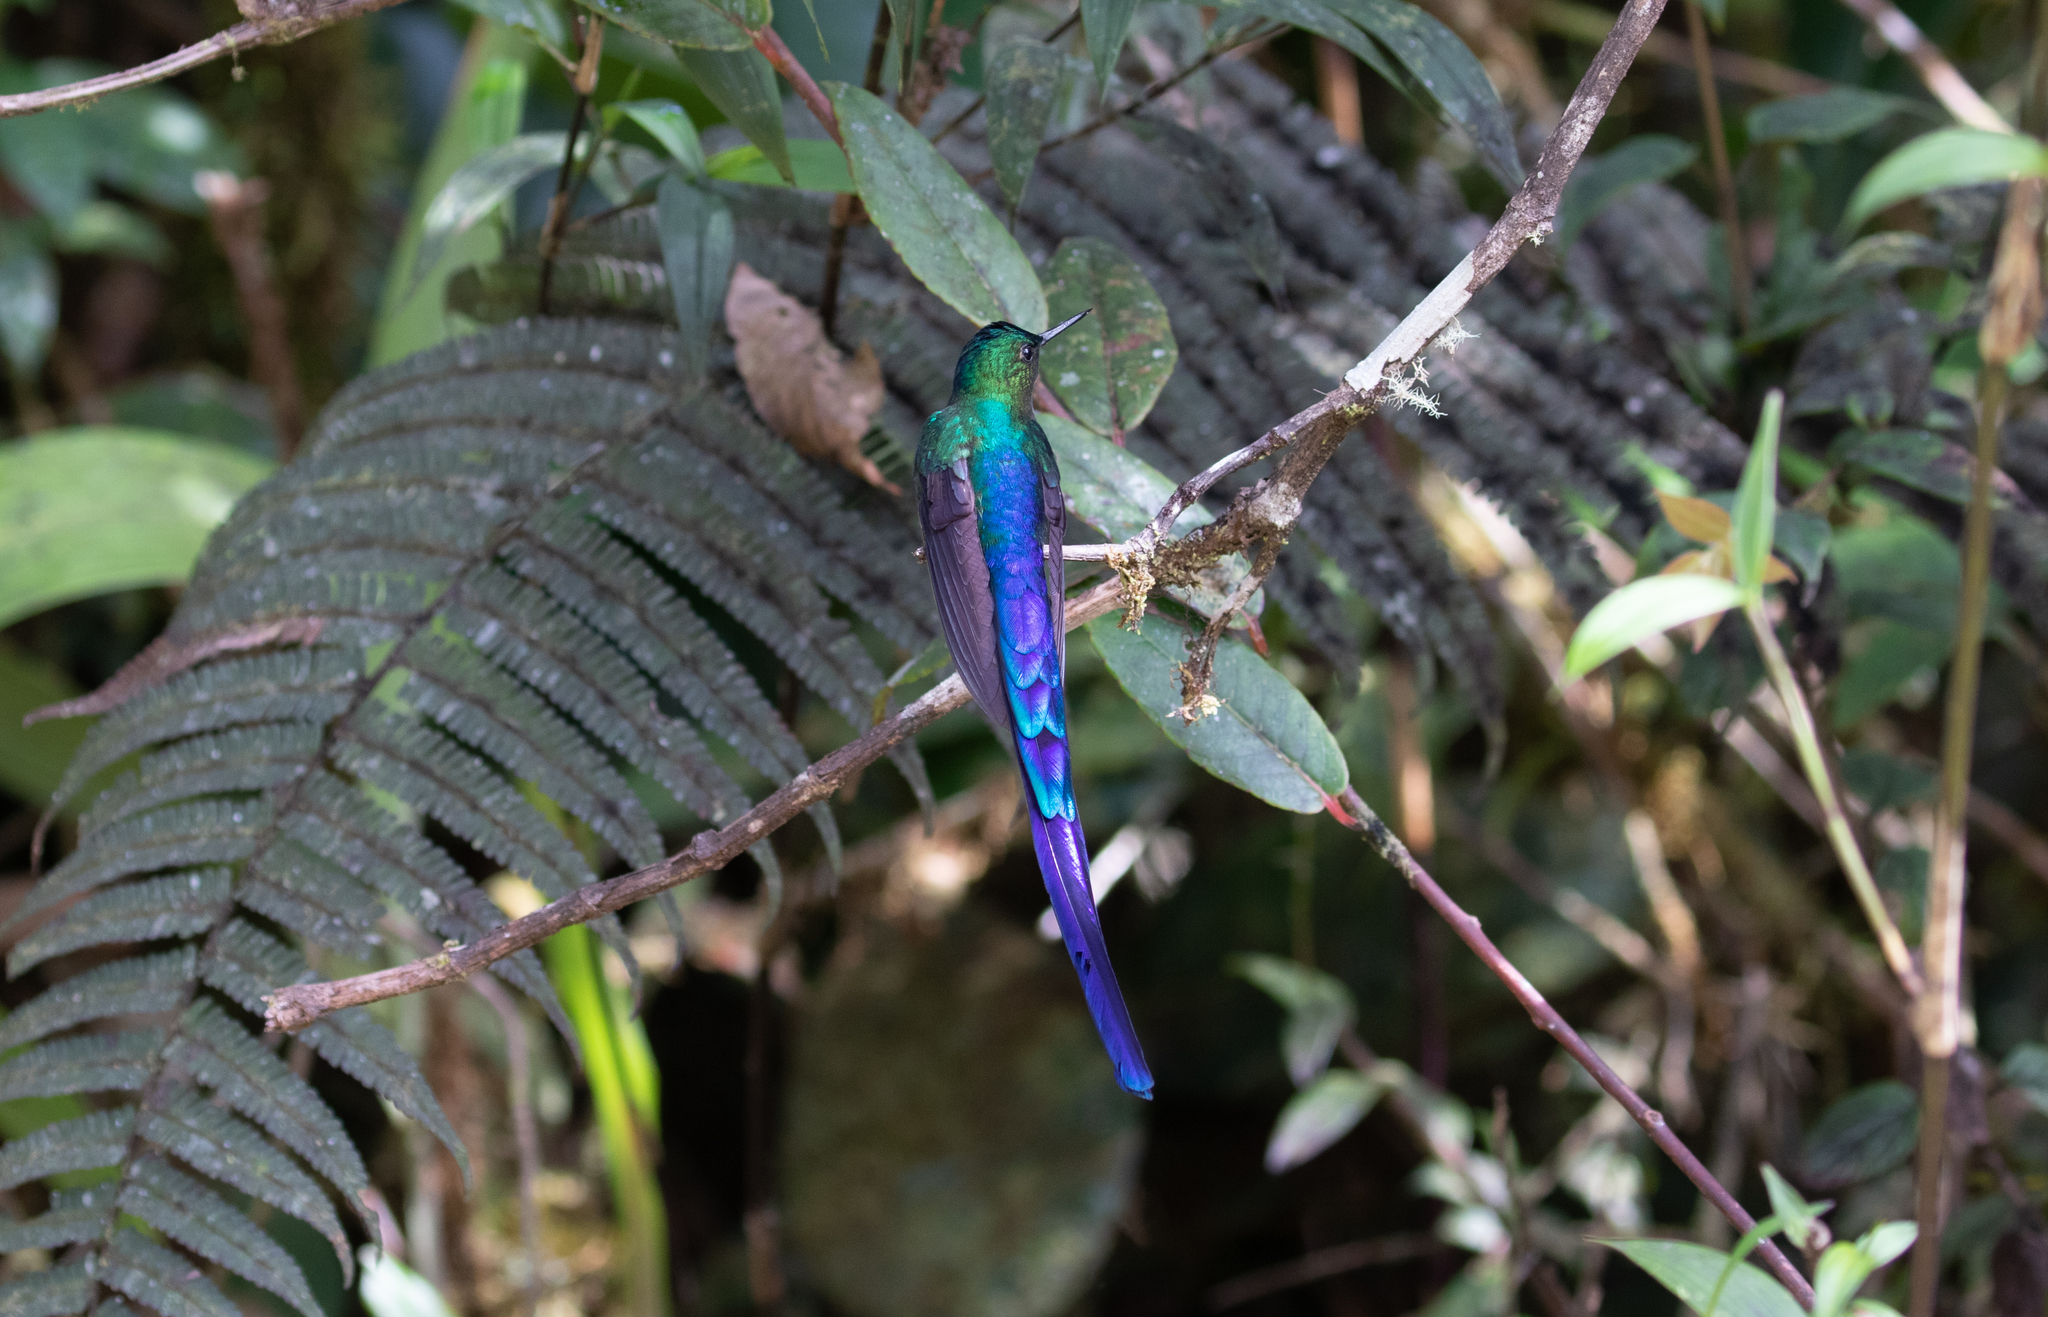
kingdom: Animalia
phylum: Chordata
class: Aves
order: Apodiformes
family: Trochilidae
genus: Aglaiocercus
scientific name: Aglaiocercus coelestis
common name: Violet-tailed sylph
